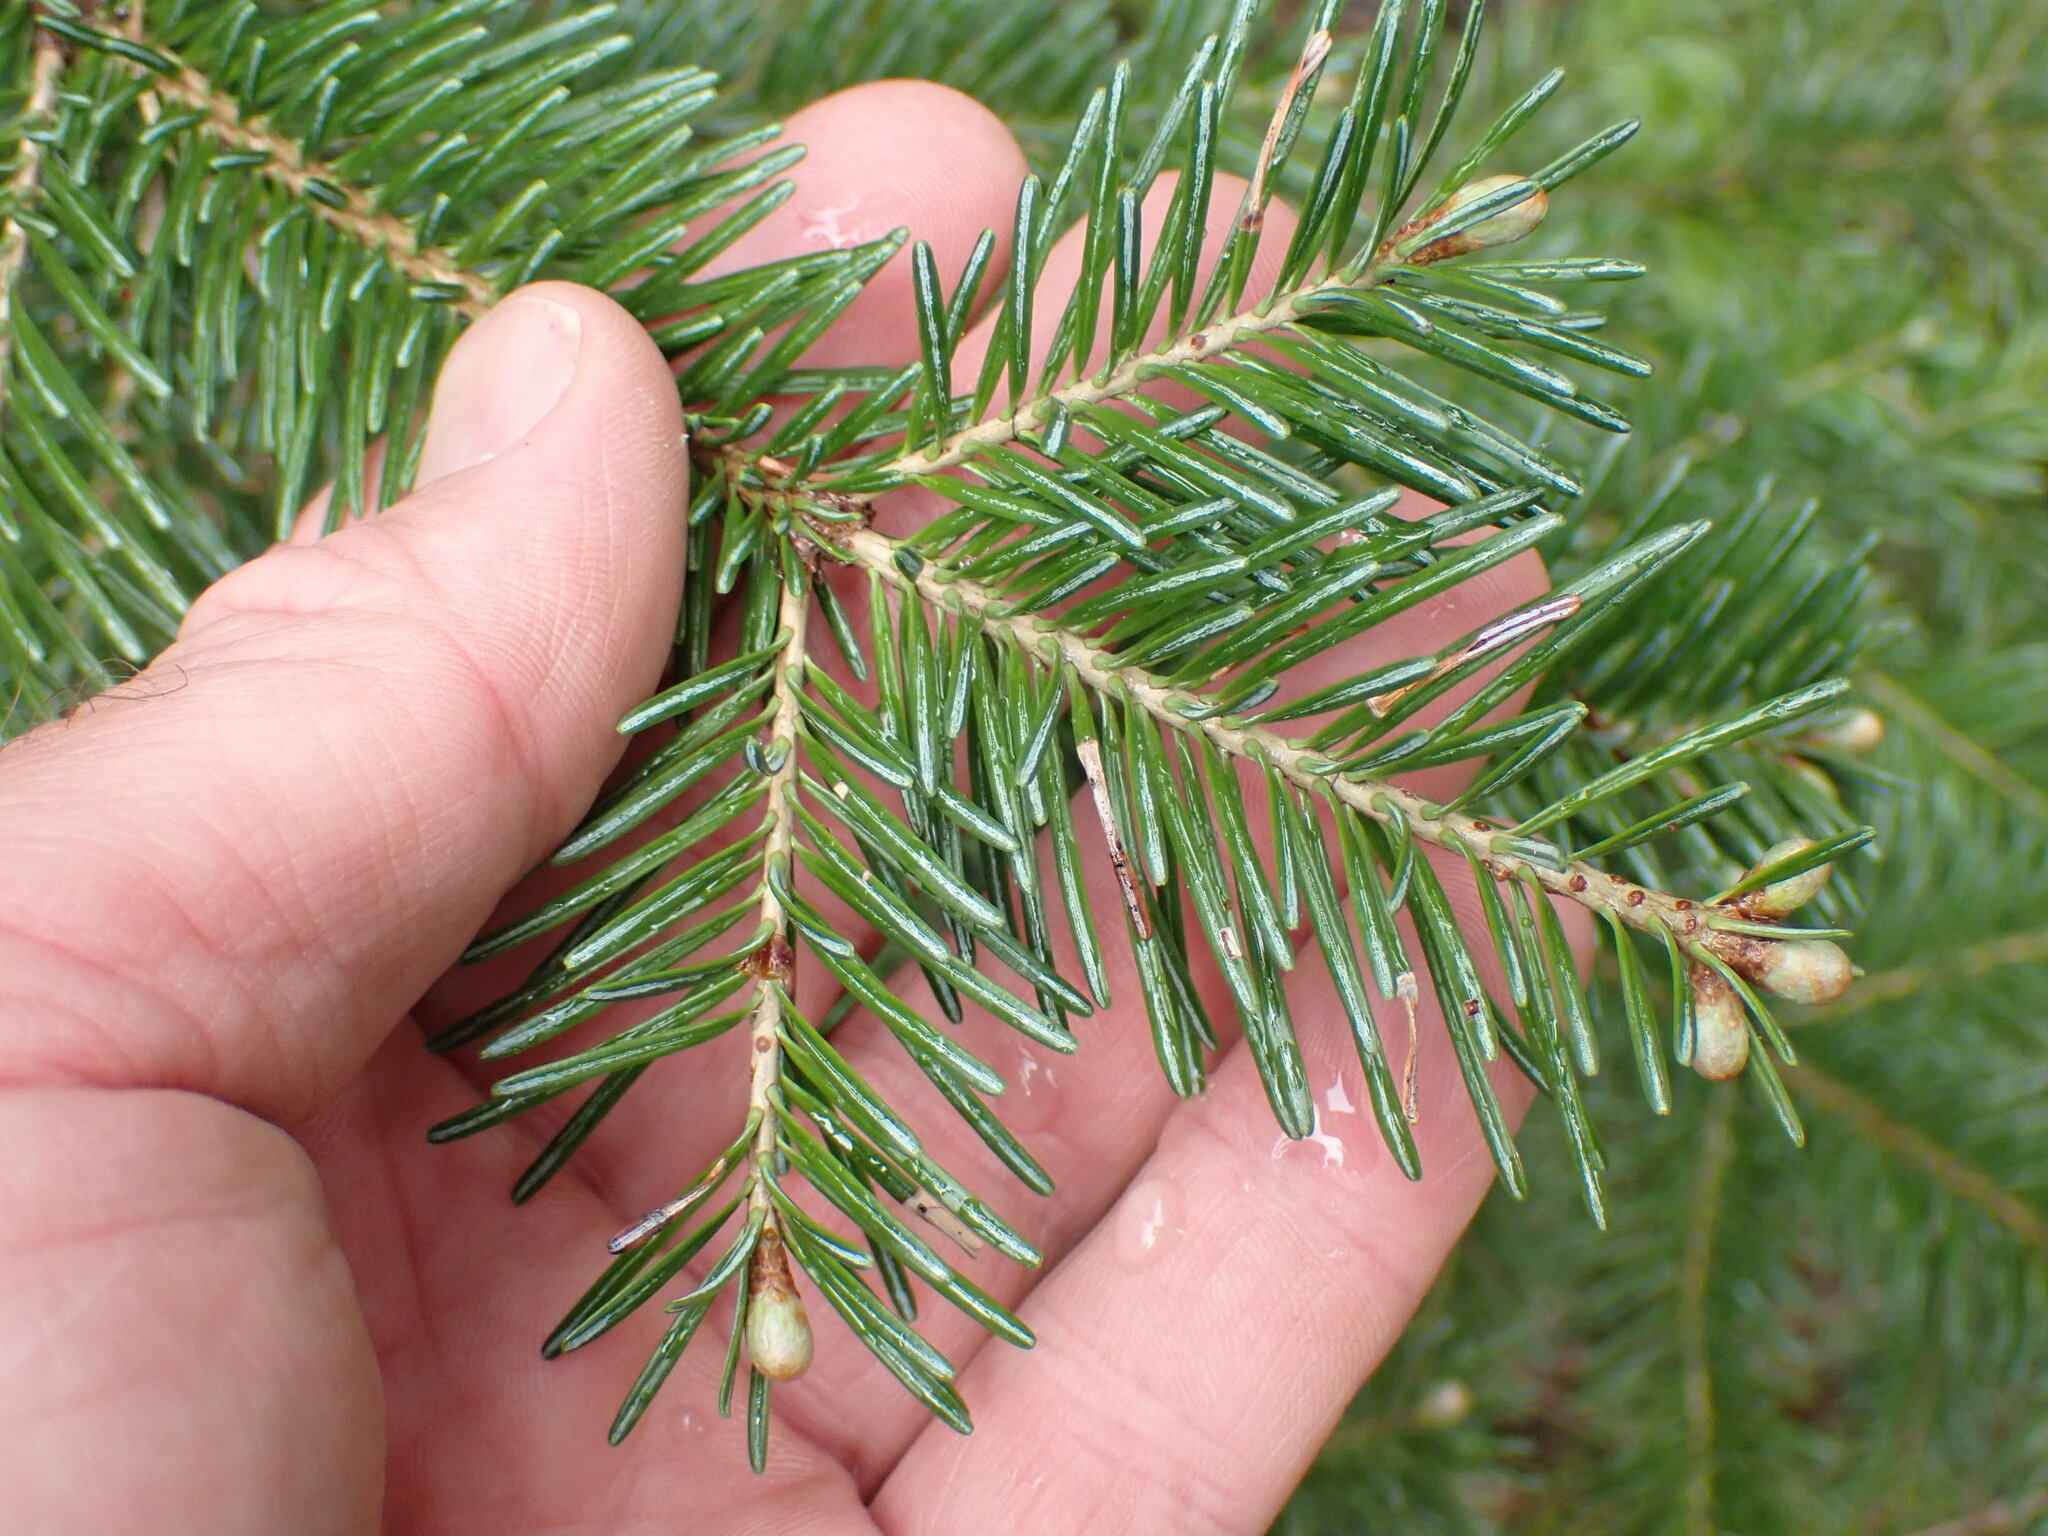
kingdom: Plantae
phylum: Tracheophyta
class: Pinopsida
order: Pinales
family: Pinaceae
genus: Abies
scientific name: Abies lasiocarpa
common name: Subalpine fir
